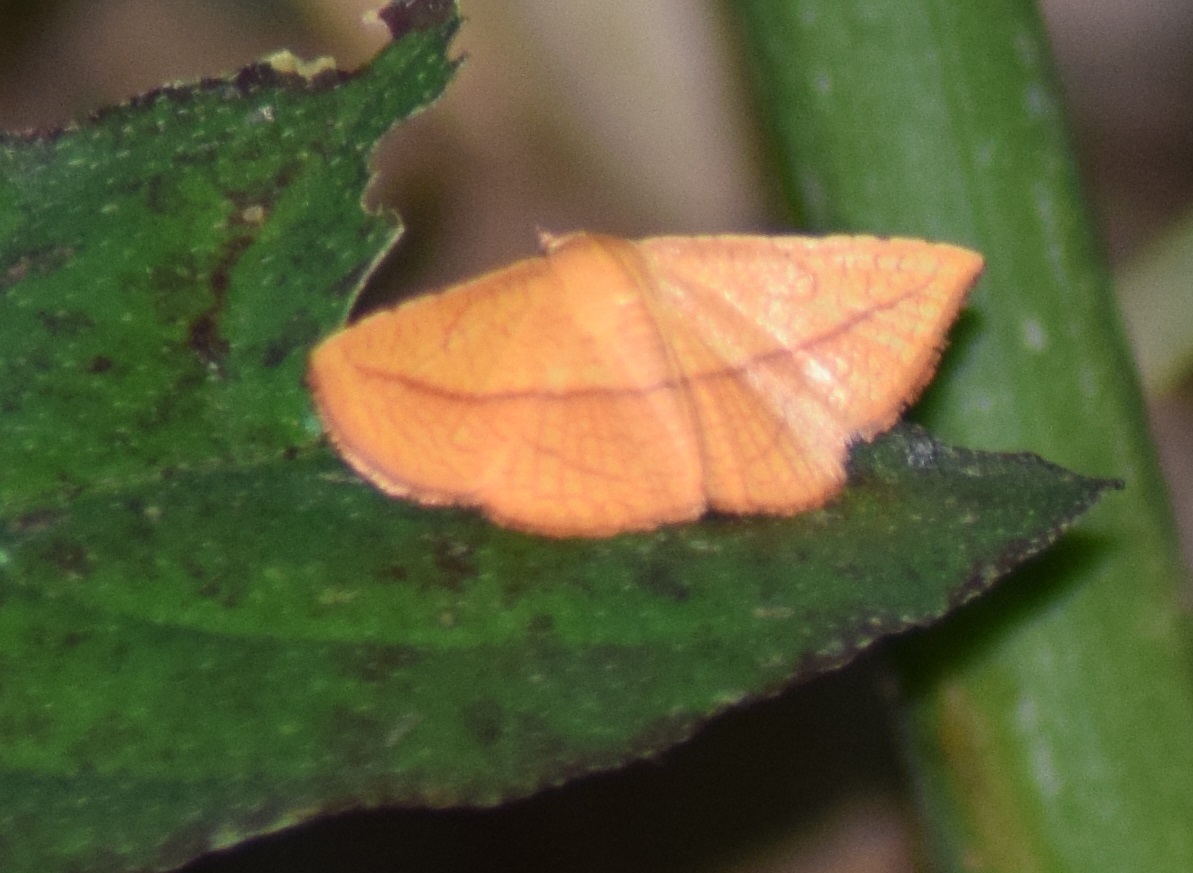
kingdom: Animalia
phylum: Arthropoda
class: Insecta
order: Lepidoptera
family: Thyrididae
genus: Striglina
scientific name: Striglina scitaria
